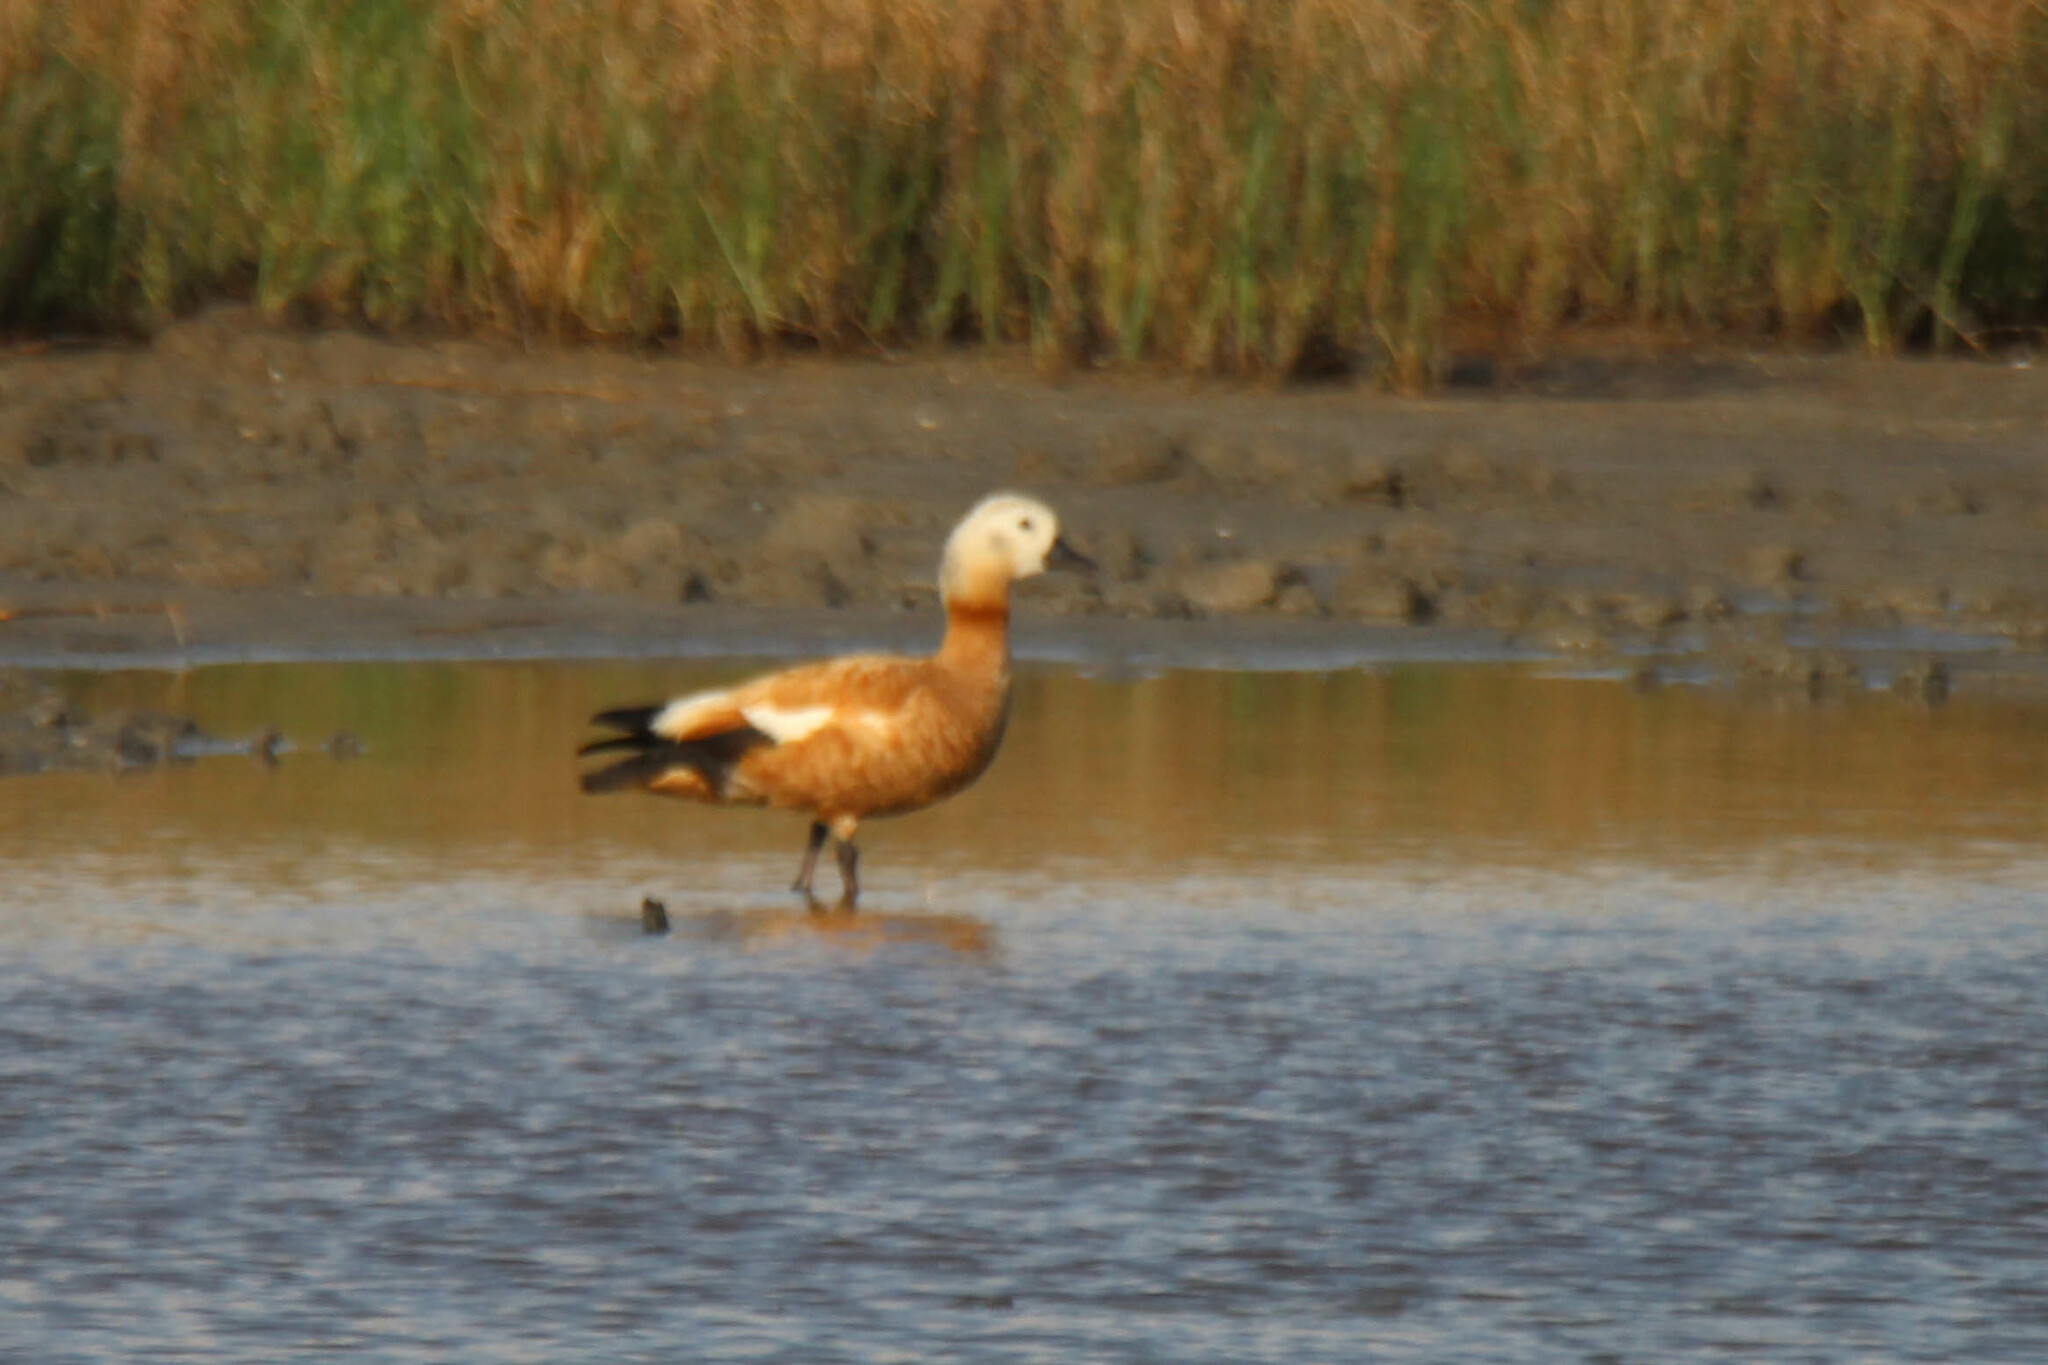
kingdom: Animalia
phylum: Chordata
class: Aves
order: Anseriformes
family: Anatidae
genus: Tadorna
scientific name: Tadorna ferruginea
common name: Ruddy shelduck
